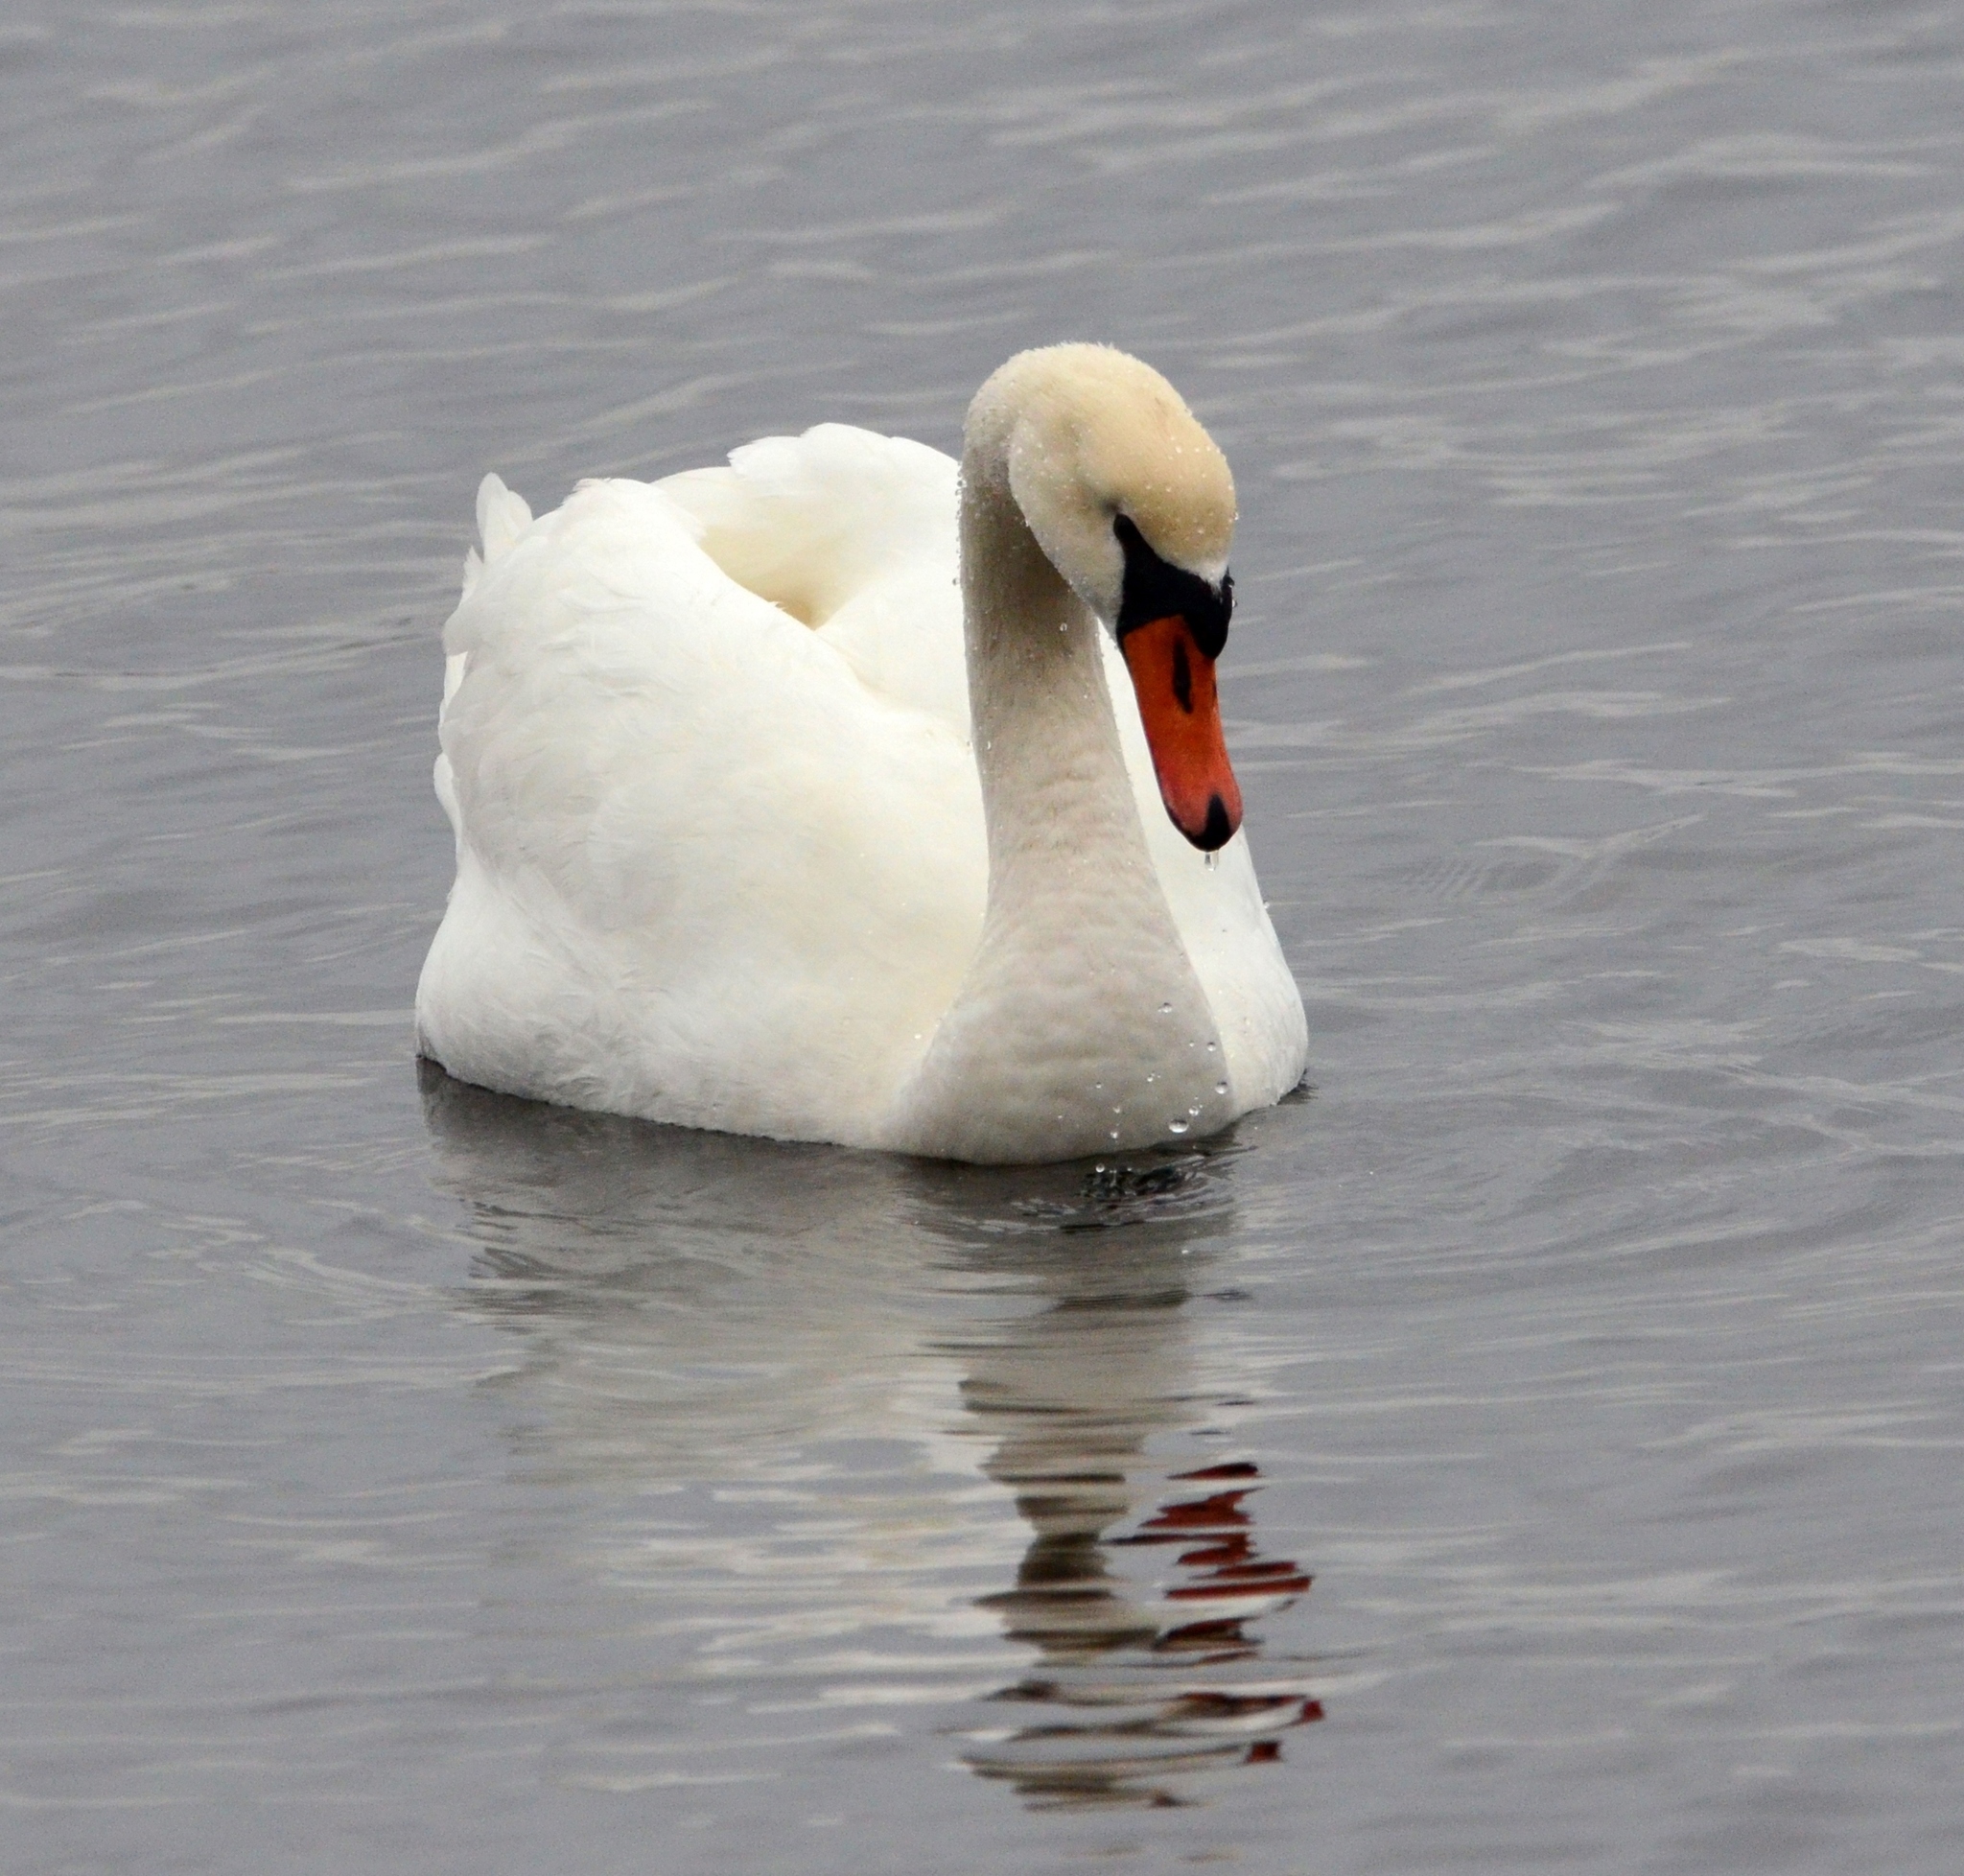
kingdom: Animalia
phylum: Chordata
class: Aves
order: Anseriformes
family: Anatidae
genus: Cygnus
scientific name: Cygnus olor
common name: Mute swan
